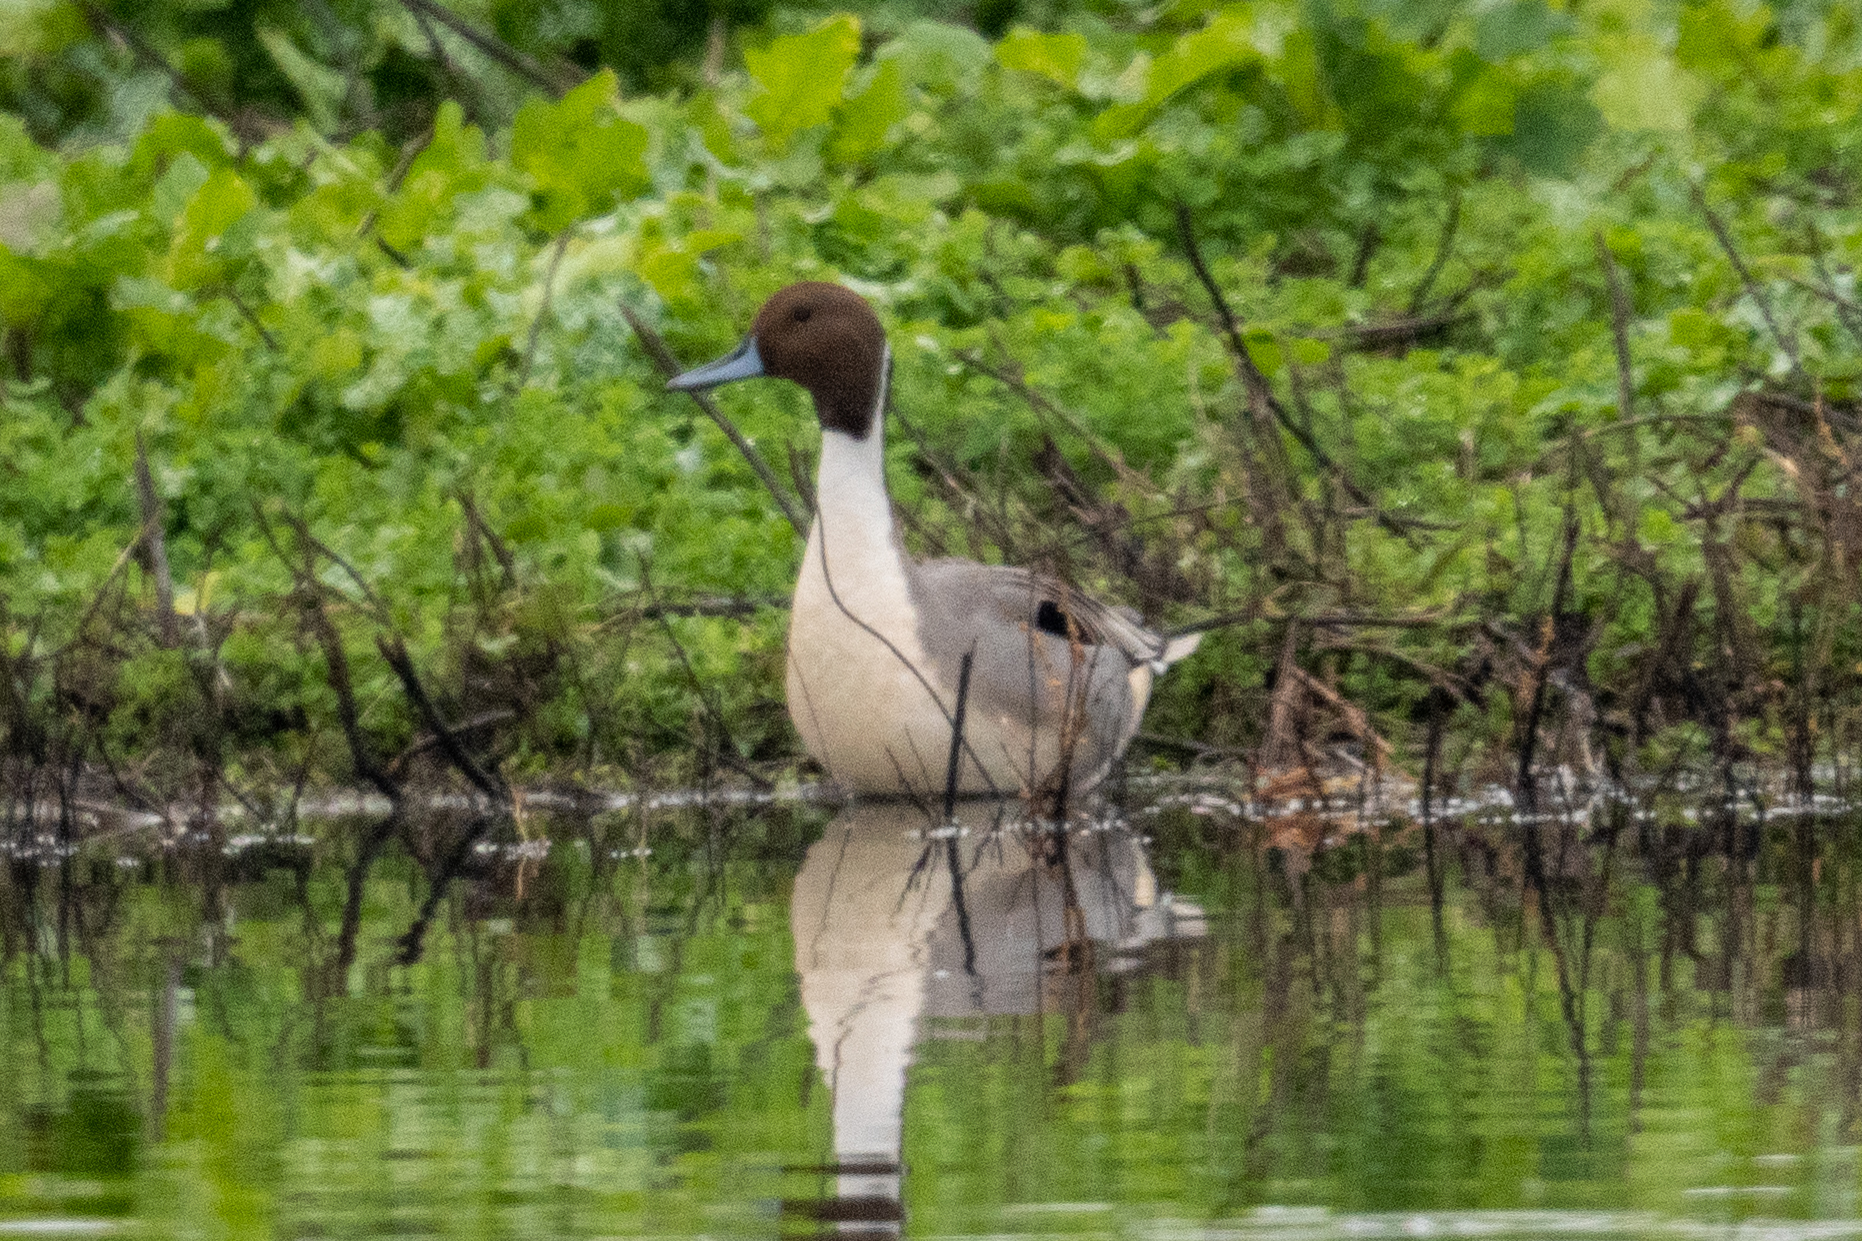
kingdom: Animalia
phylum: Chordata
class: Aves
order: Anseriformes
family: Anatidae
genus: Anas
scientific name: Anas acuta
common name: Northern pintail
